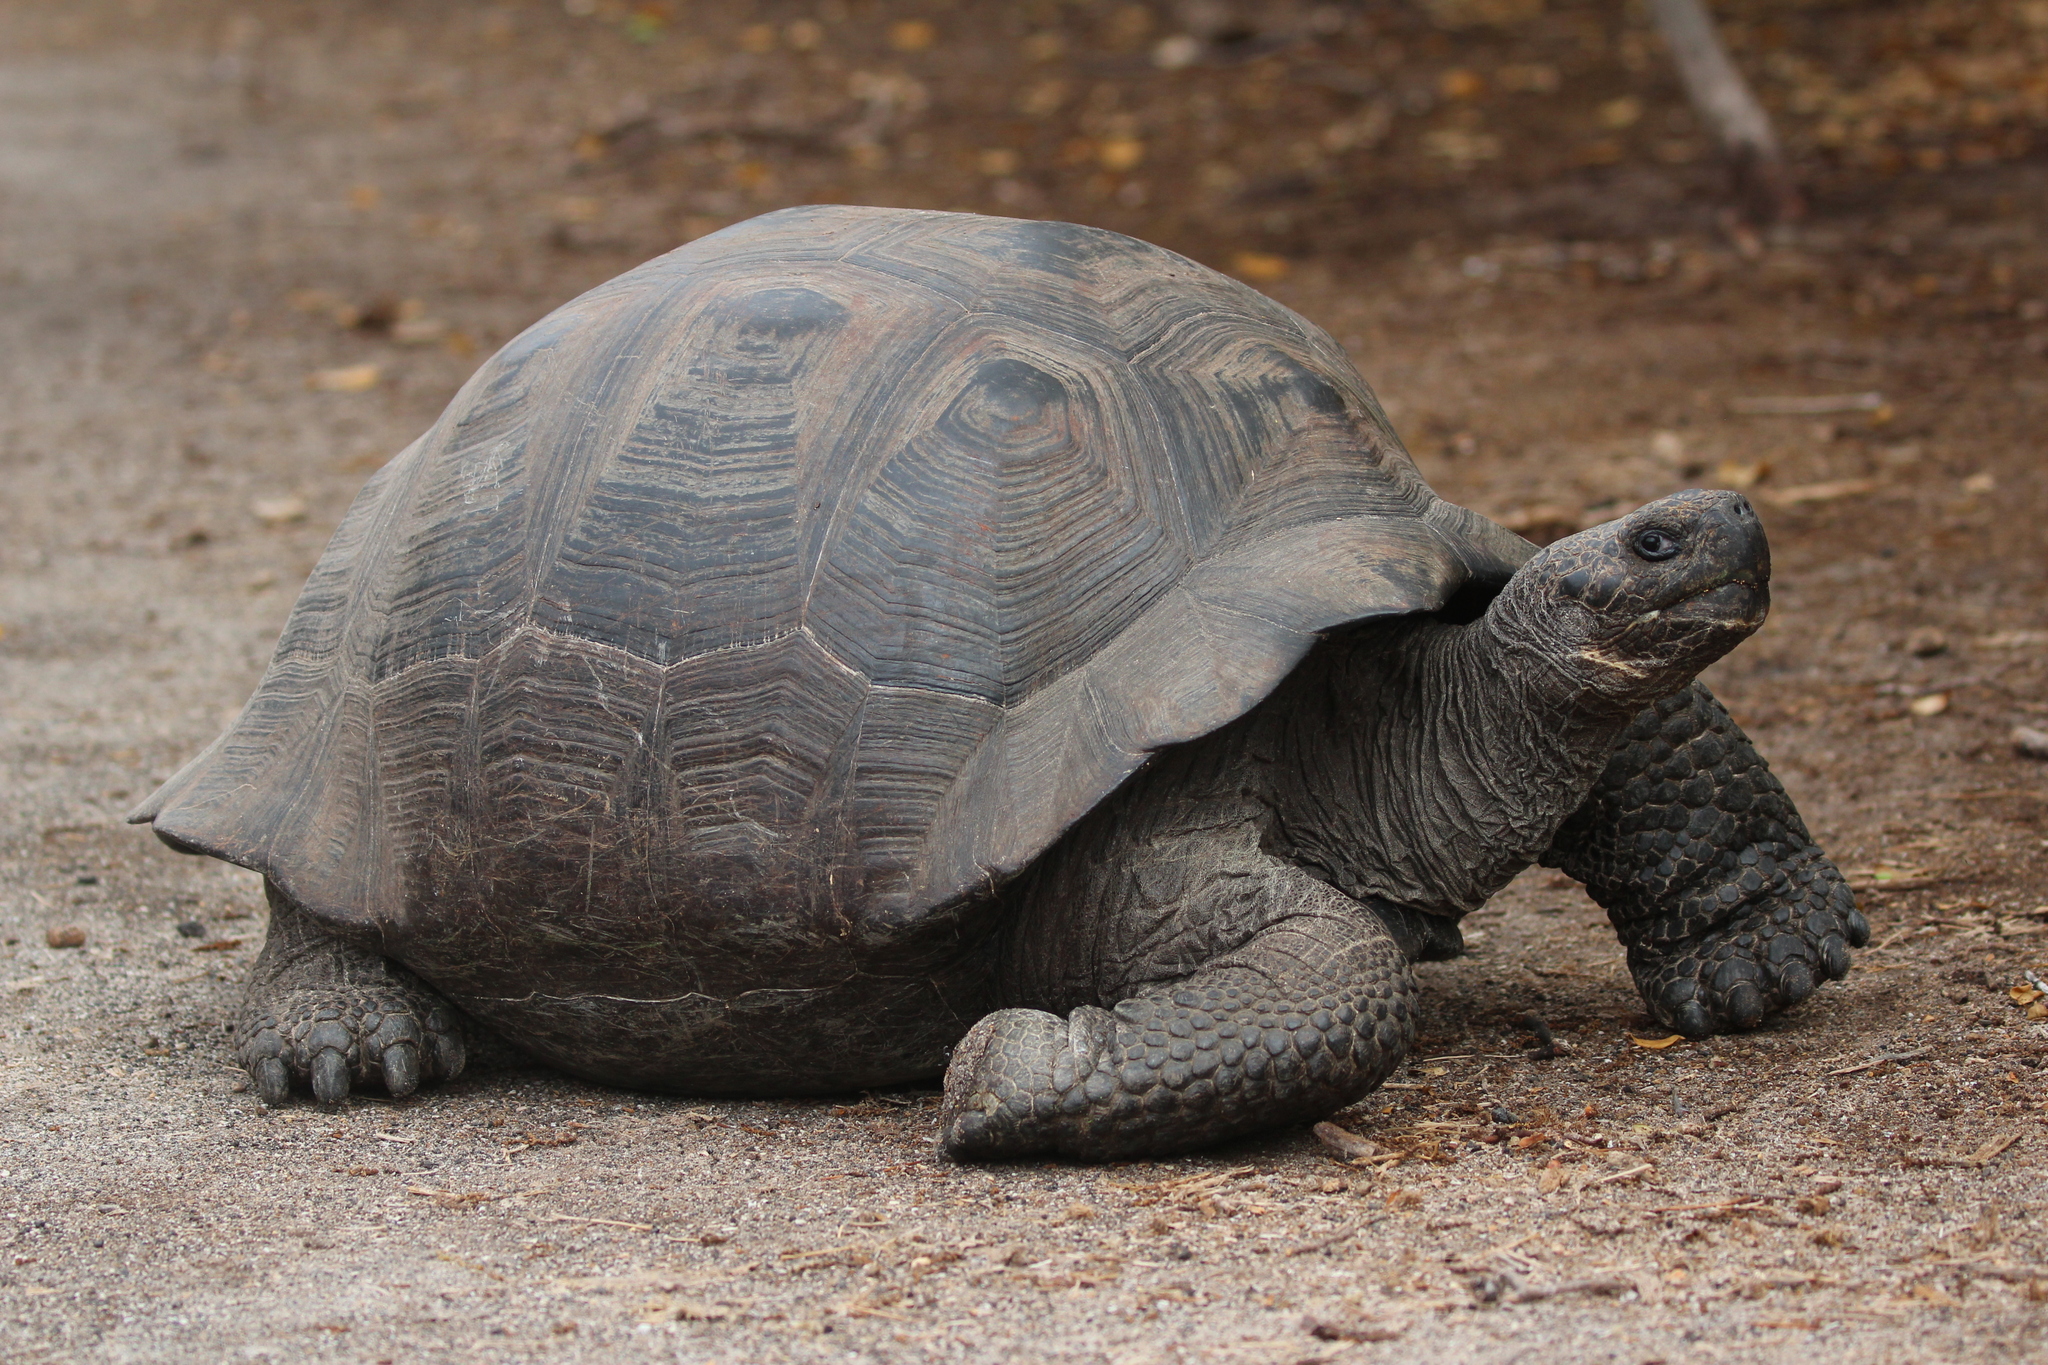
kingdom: Animalia
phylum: Chordata
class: Testudines
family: Testudinidae
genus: Chelonoidis
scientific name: Chelonoidis niger
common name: Charles island giant tortoise
